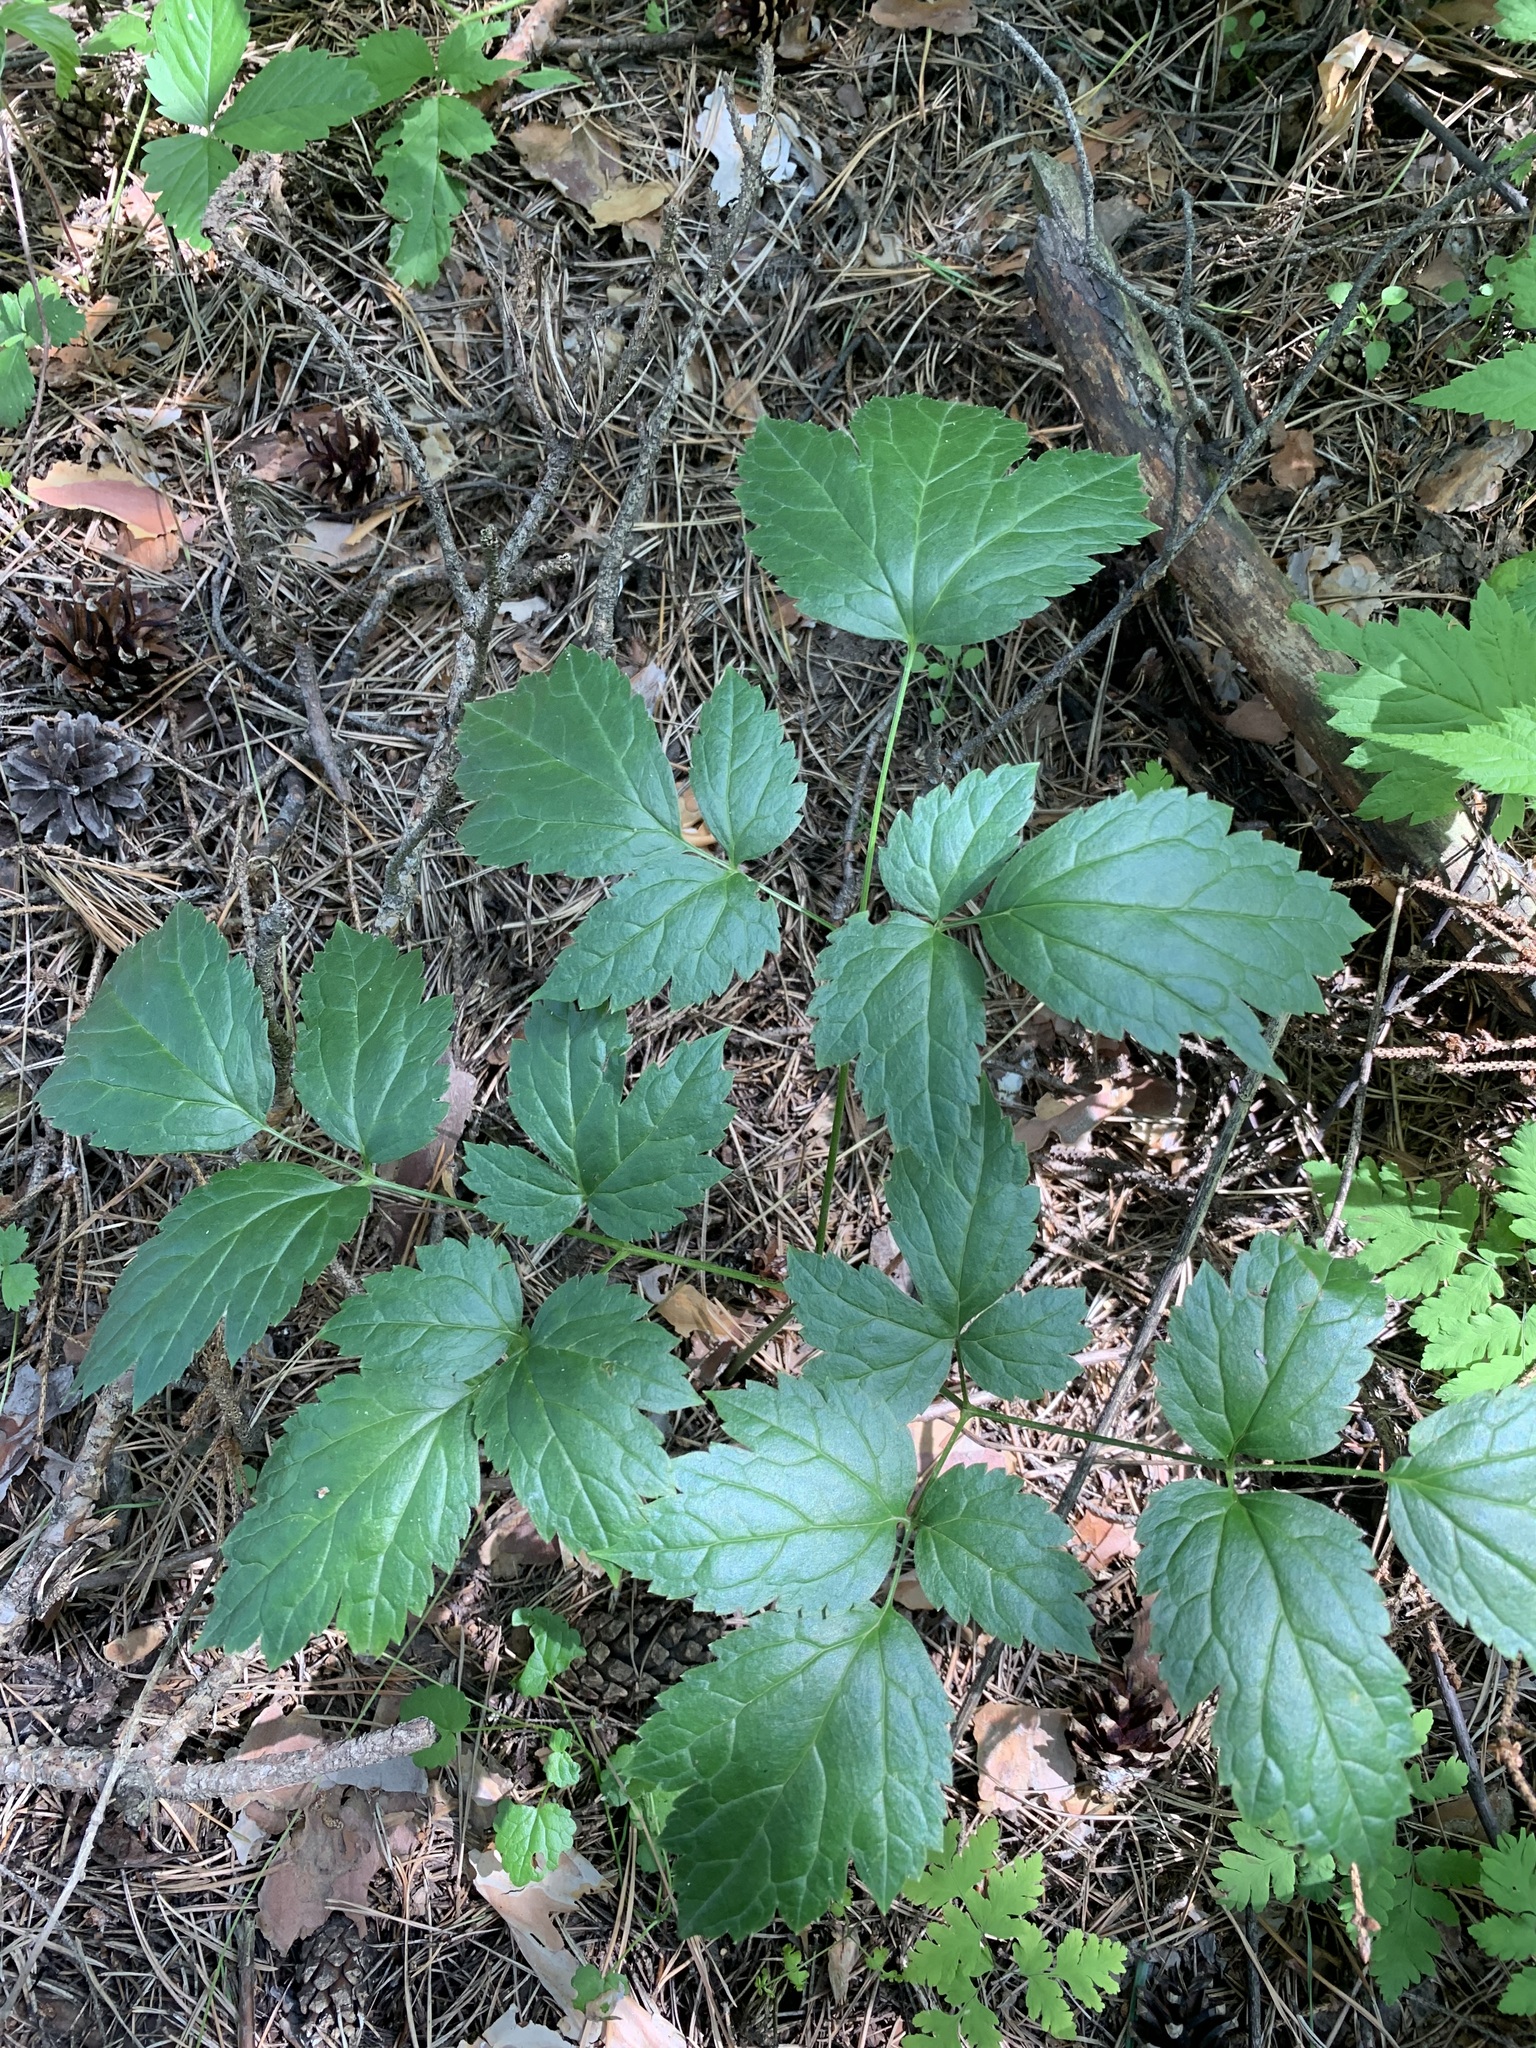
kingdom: Plantae
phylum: Tracheophyta
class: Magnoliopsida
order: Ranunculales
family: Ranunculaceae
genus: Actaea
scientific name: Actaea erythrocarpa
